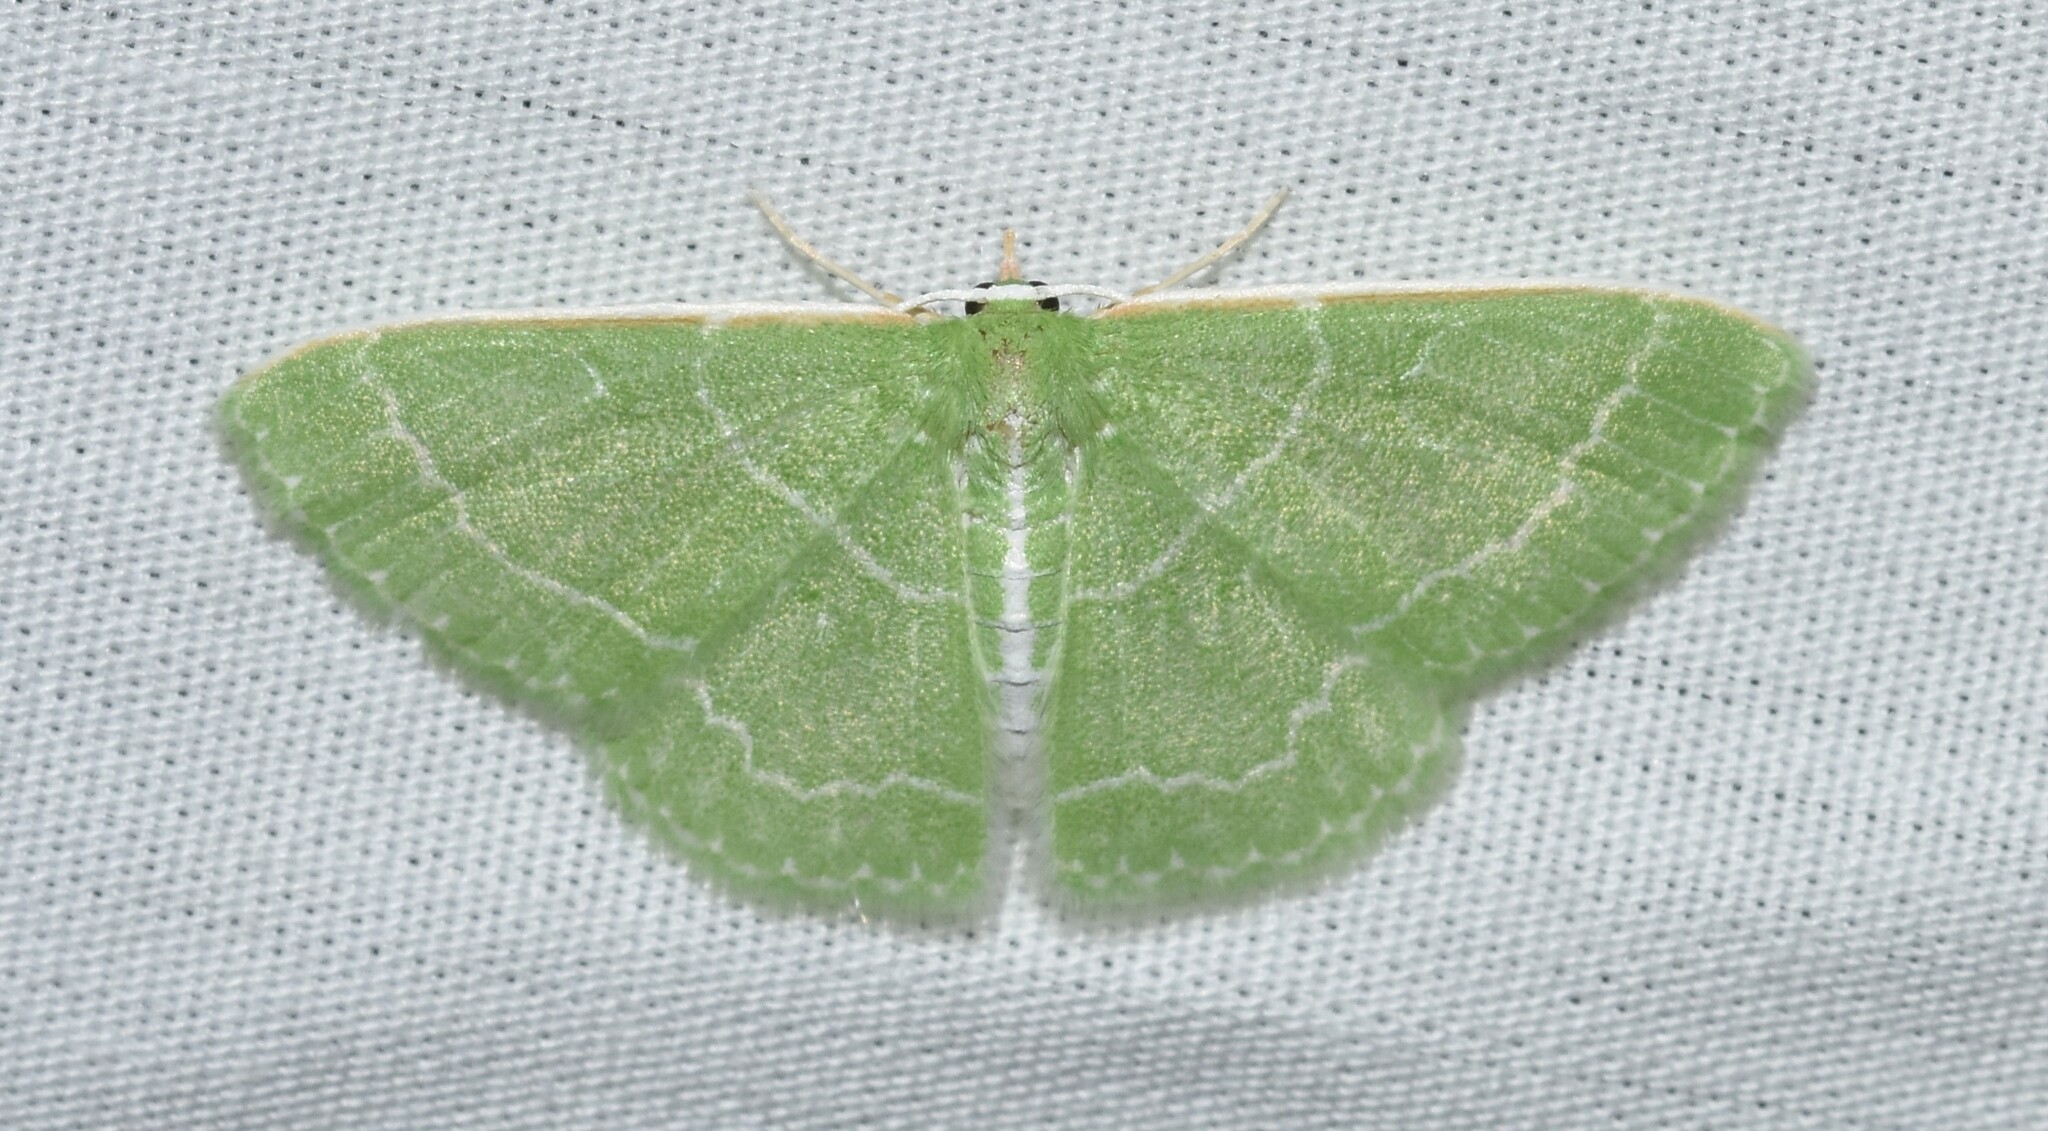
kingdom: Animalia
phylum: Arthropoda
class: Insecta
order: Lepidoptera
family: Geometridae
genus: Synchlora
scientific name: Synchlora aerata
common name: Wavy-lined emerald
